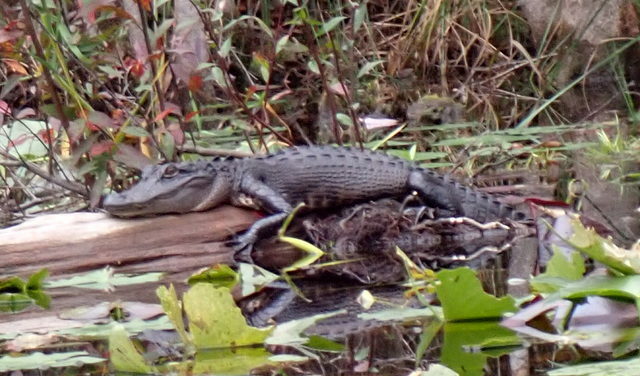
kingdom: Animalia
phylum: Chordata
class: Crocodylia
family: Alligatoridae
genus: Alligator
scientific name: Alligator mississippiensis
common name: American alligator
